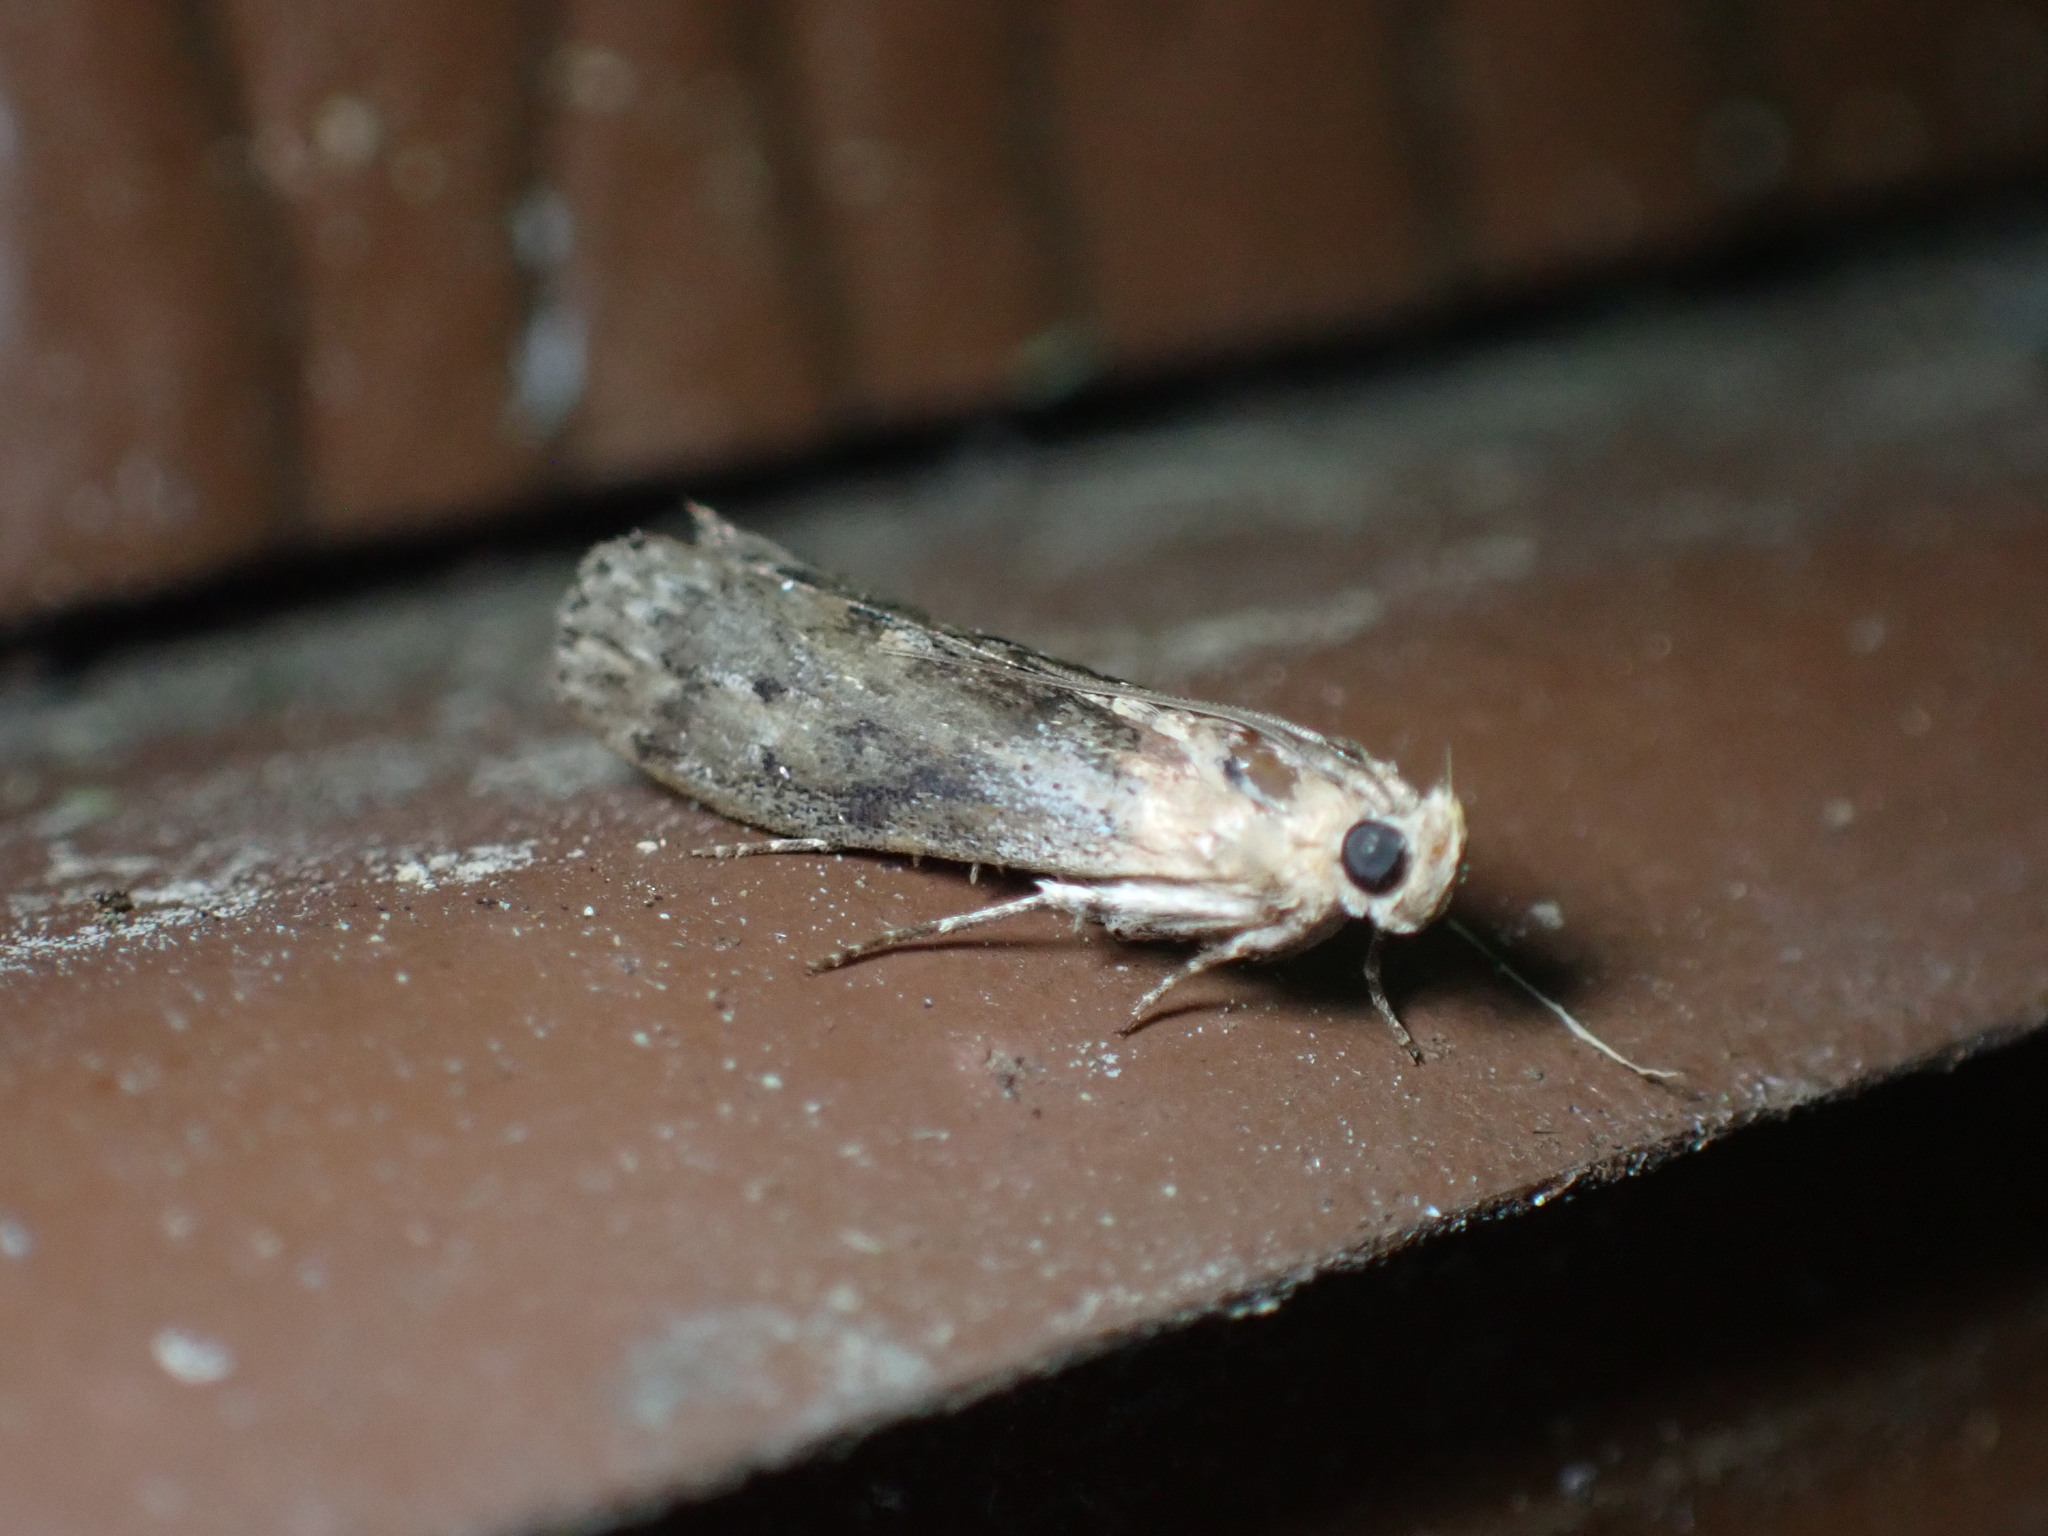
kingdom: Animalia
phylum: Arthropoda
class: Insecta
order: Lepidoptera
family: Pyralidae
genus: Sciota
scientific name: Sciota celtidella
